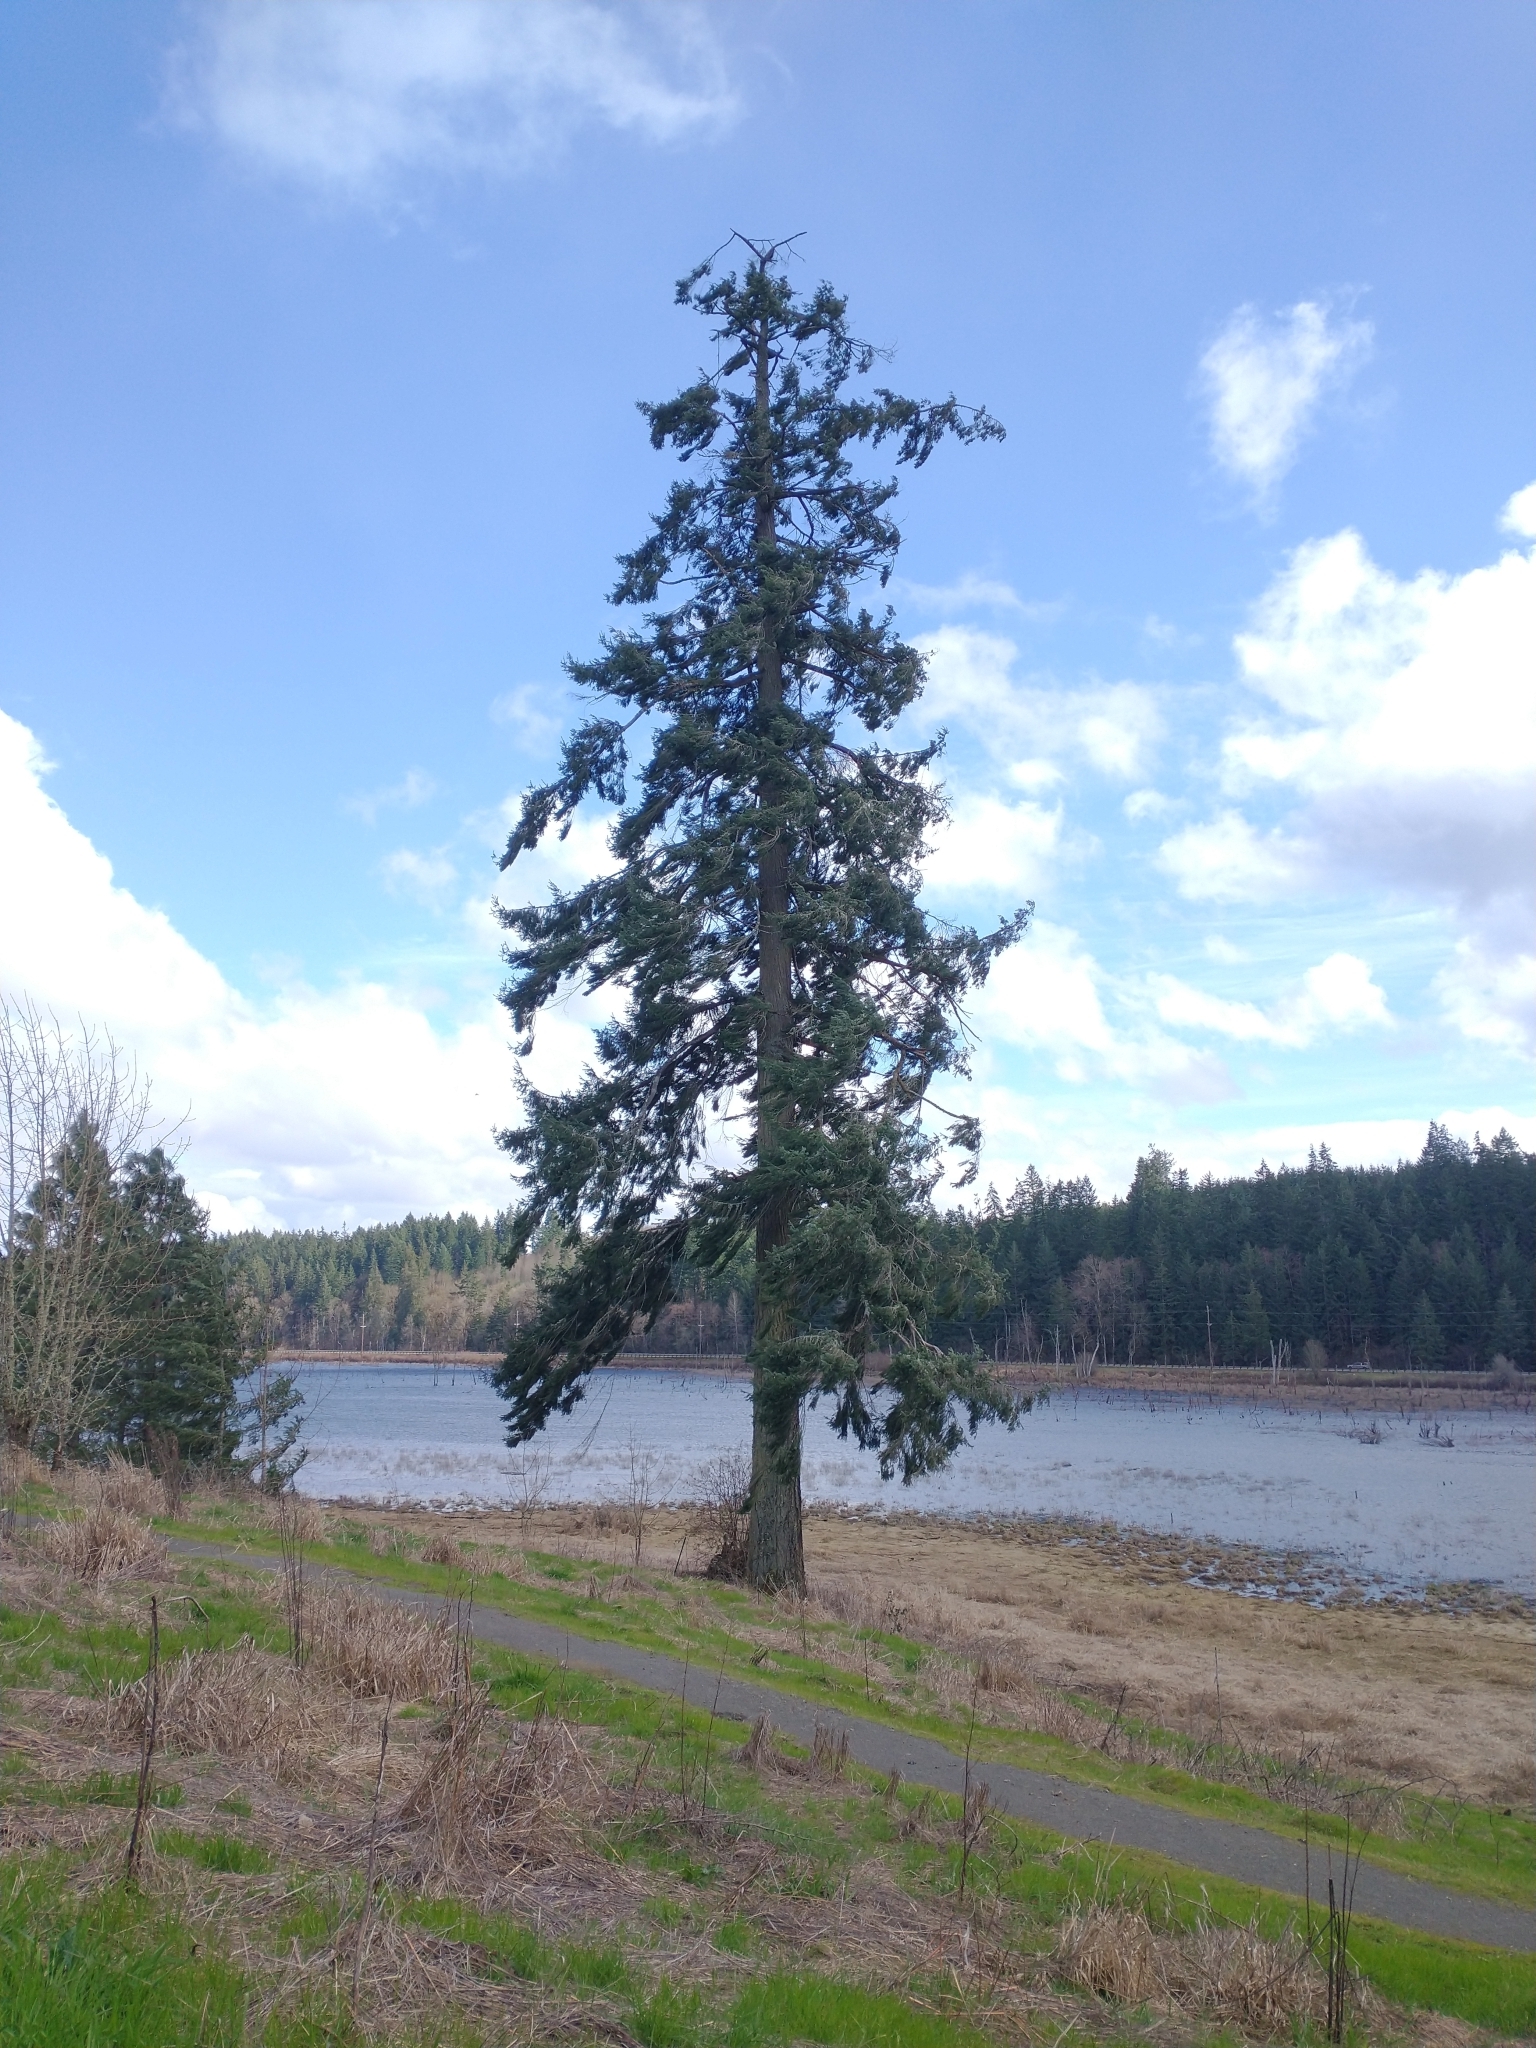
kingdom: Plantae
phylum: Tracheophyta
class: Pinopsida
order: Pinales
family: Pinaceae
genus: Pseudotsuga
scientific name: Pseudotsuga menziesii
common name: Douglas fir
